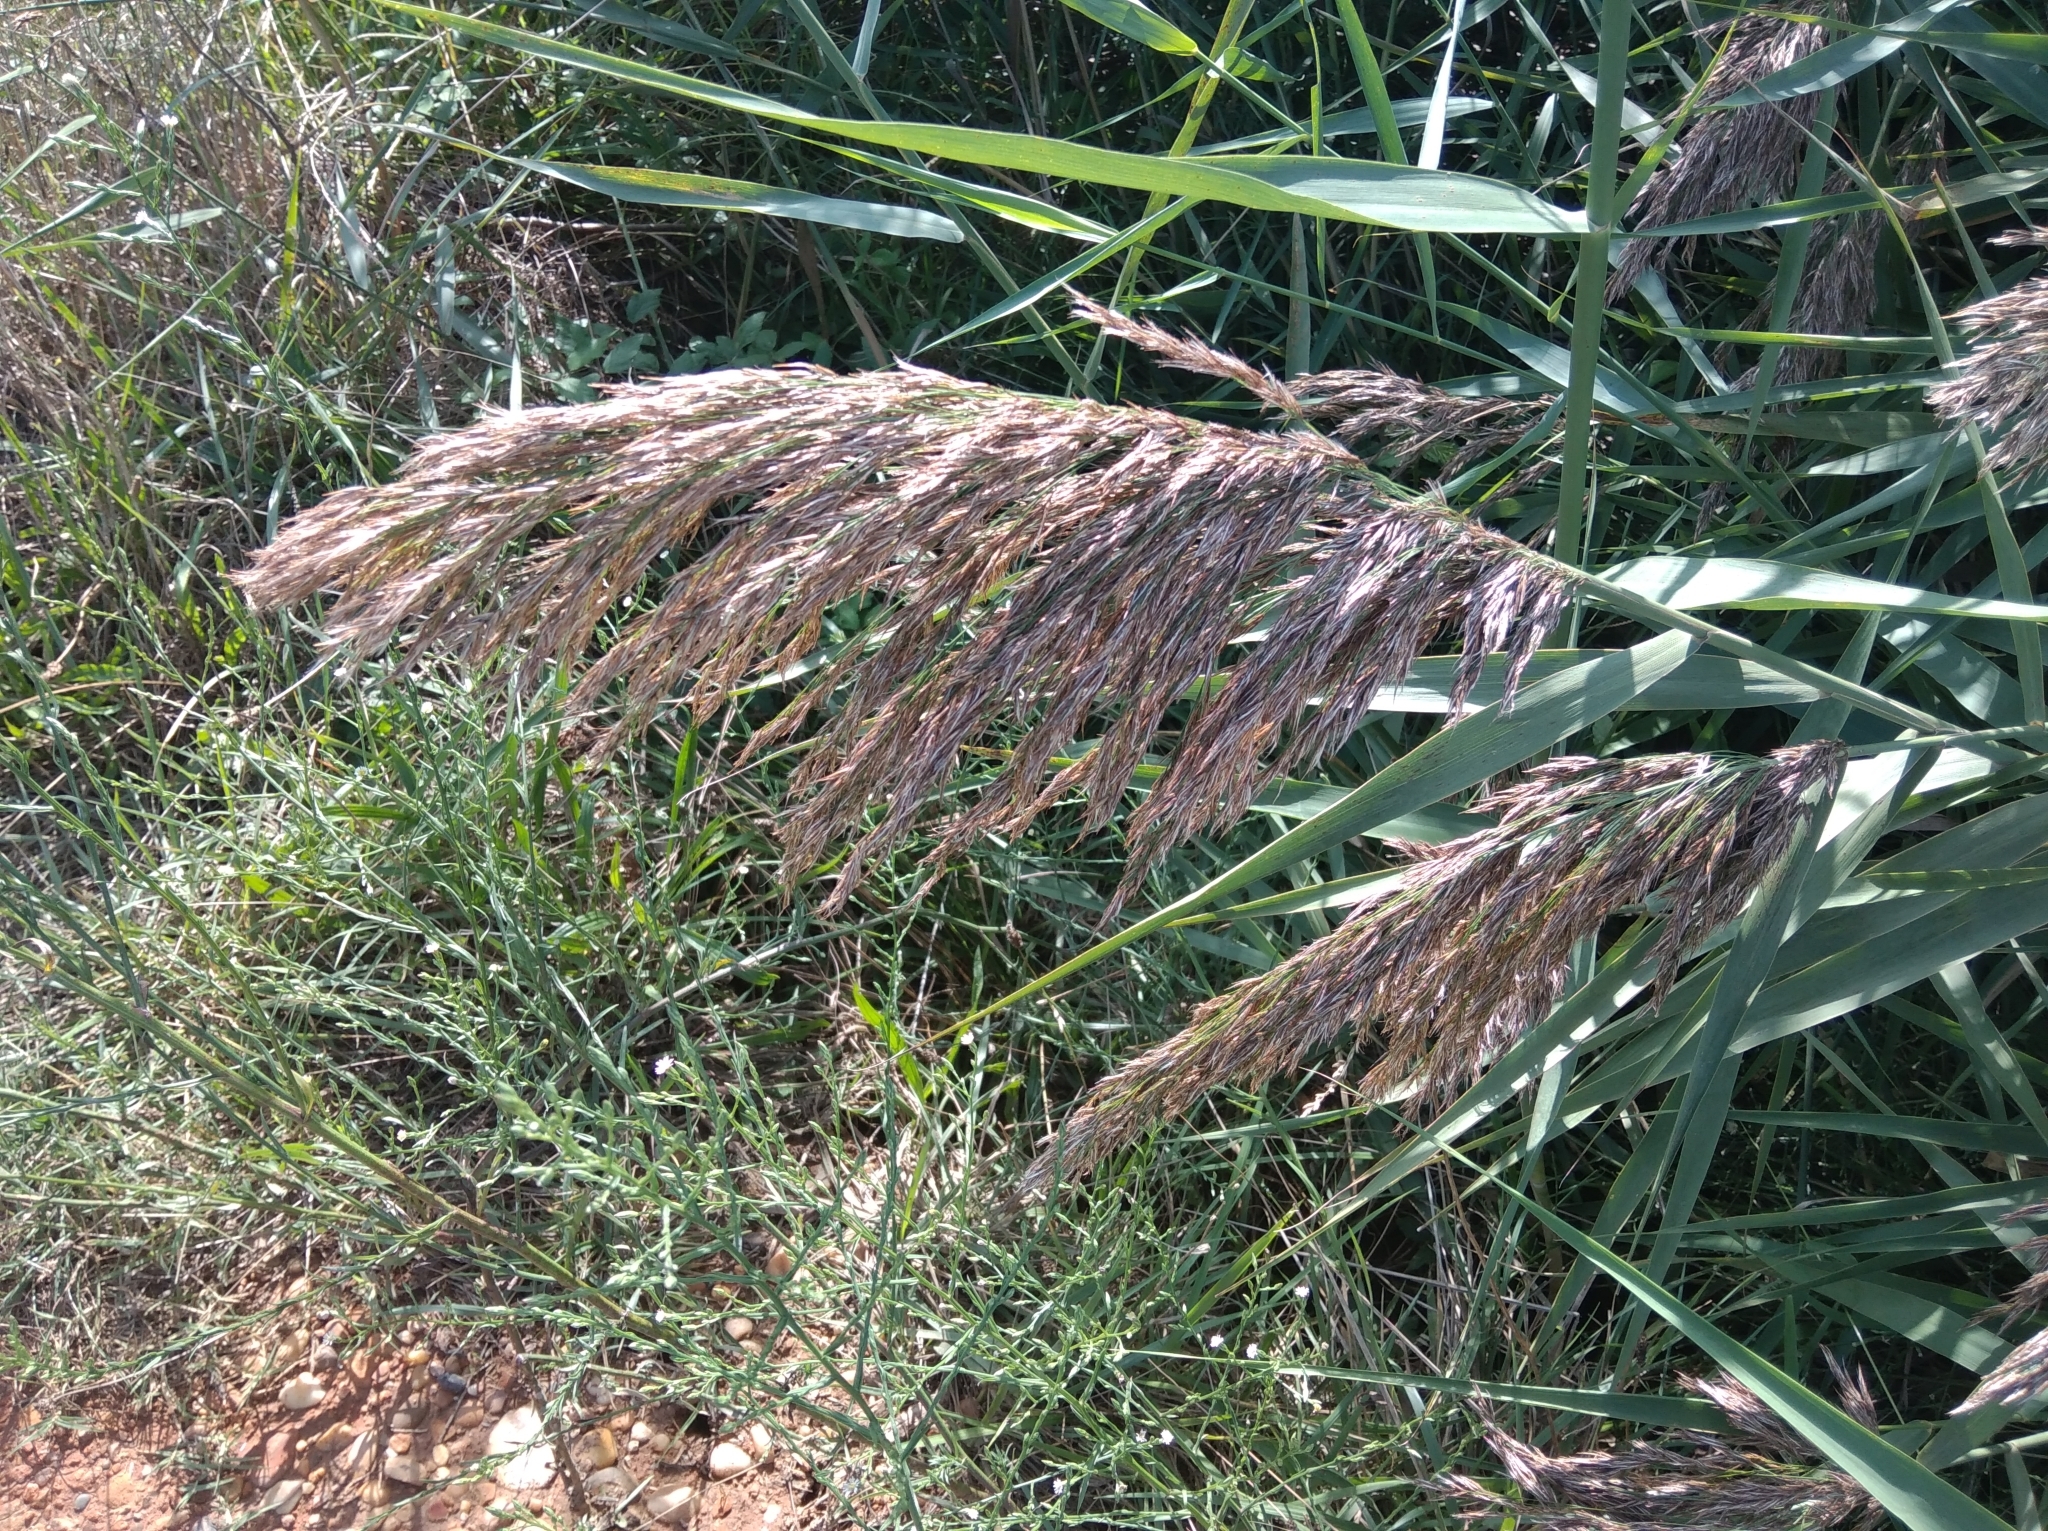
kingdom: Plantae
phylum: Tracheophyta
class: Liliopsida
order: Poales
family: Poaceae
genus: Phragmites
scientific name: Phragmites australis
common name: Common reed
